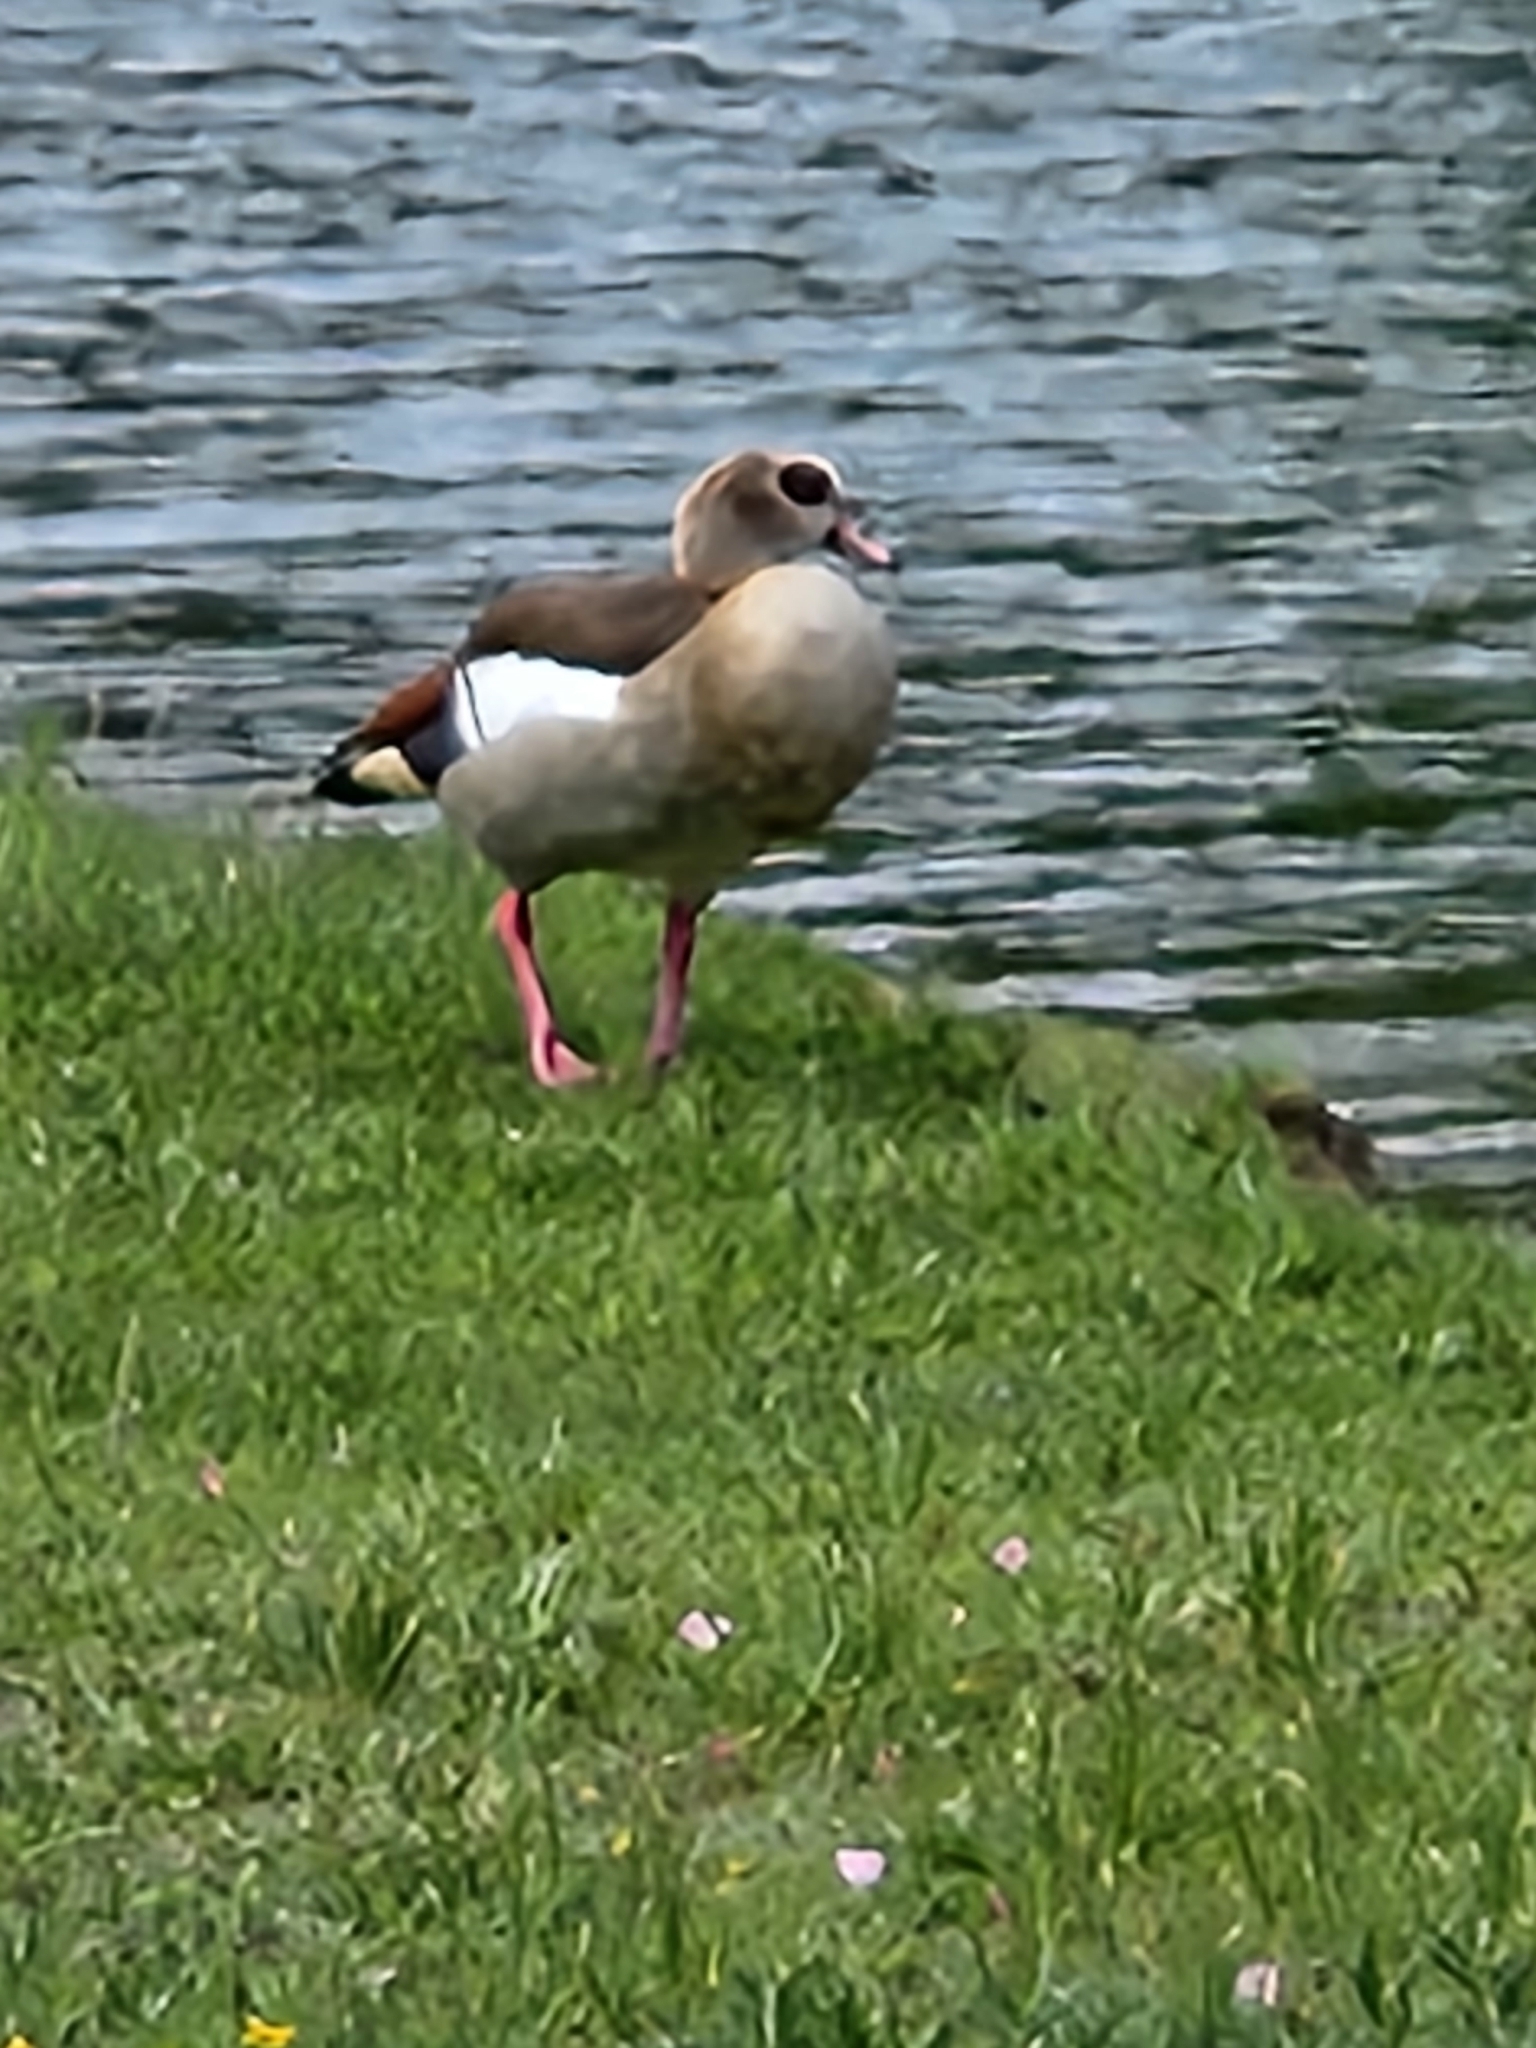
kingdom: Animalia
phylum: Chordata
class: Aves
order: Anseriformes
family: Anatidae
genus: Alopochen
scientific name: Alopochen aegyptiaca
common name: Egyptian goose
